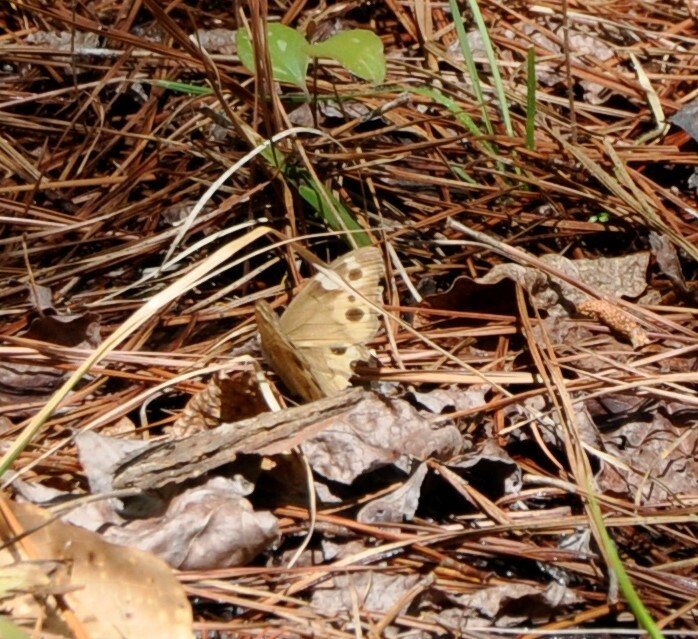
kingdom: Animalia
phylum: Arthropoda
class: Insecta
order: Lepidoptera
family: Nymphalidae
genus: Enodia
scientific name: Enodia portlandia
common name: Southern pearly-eye
